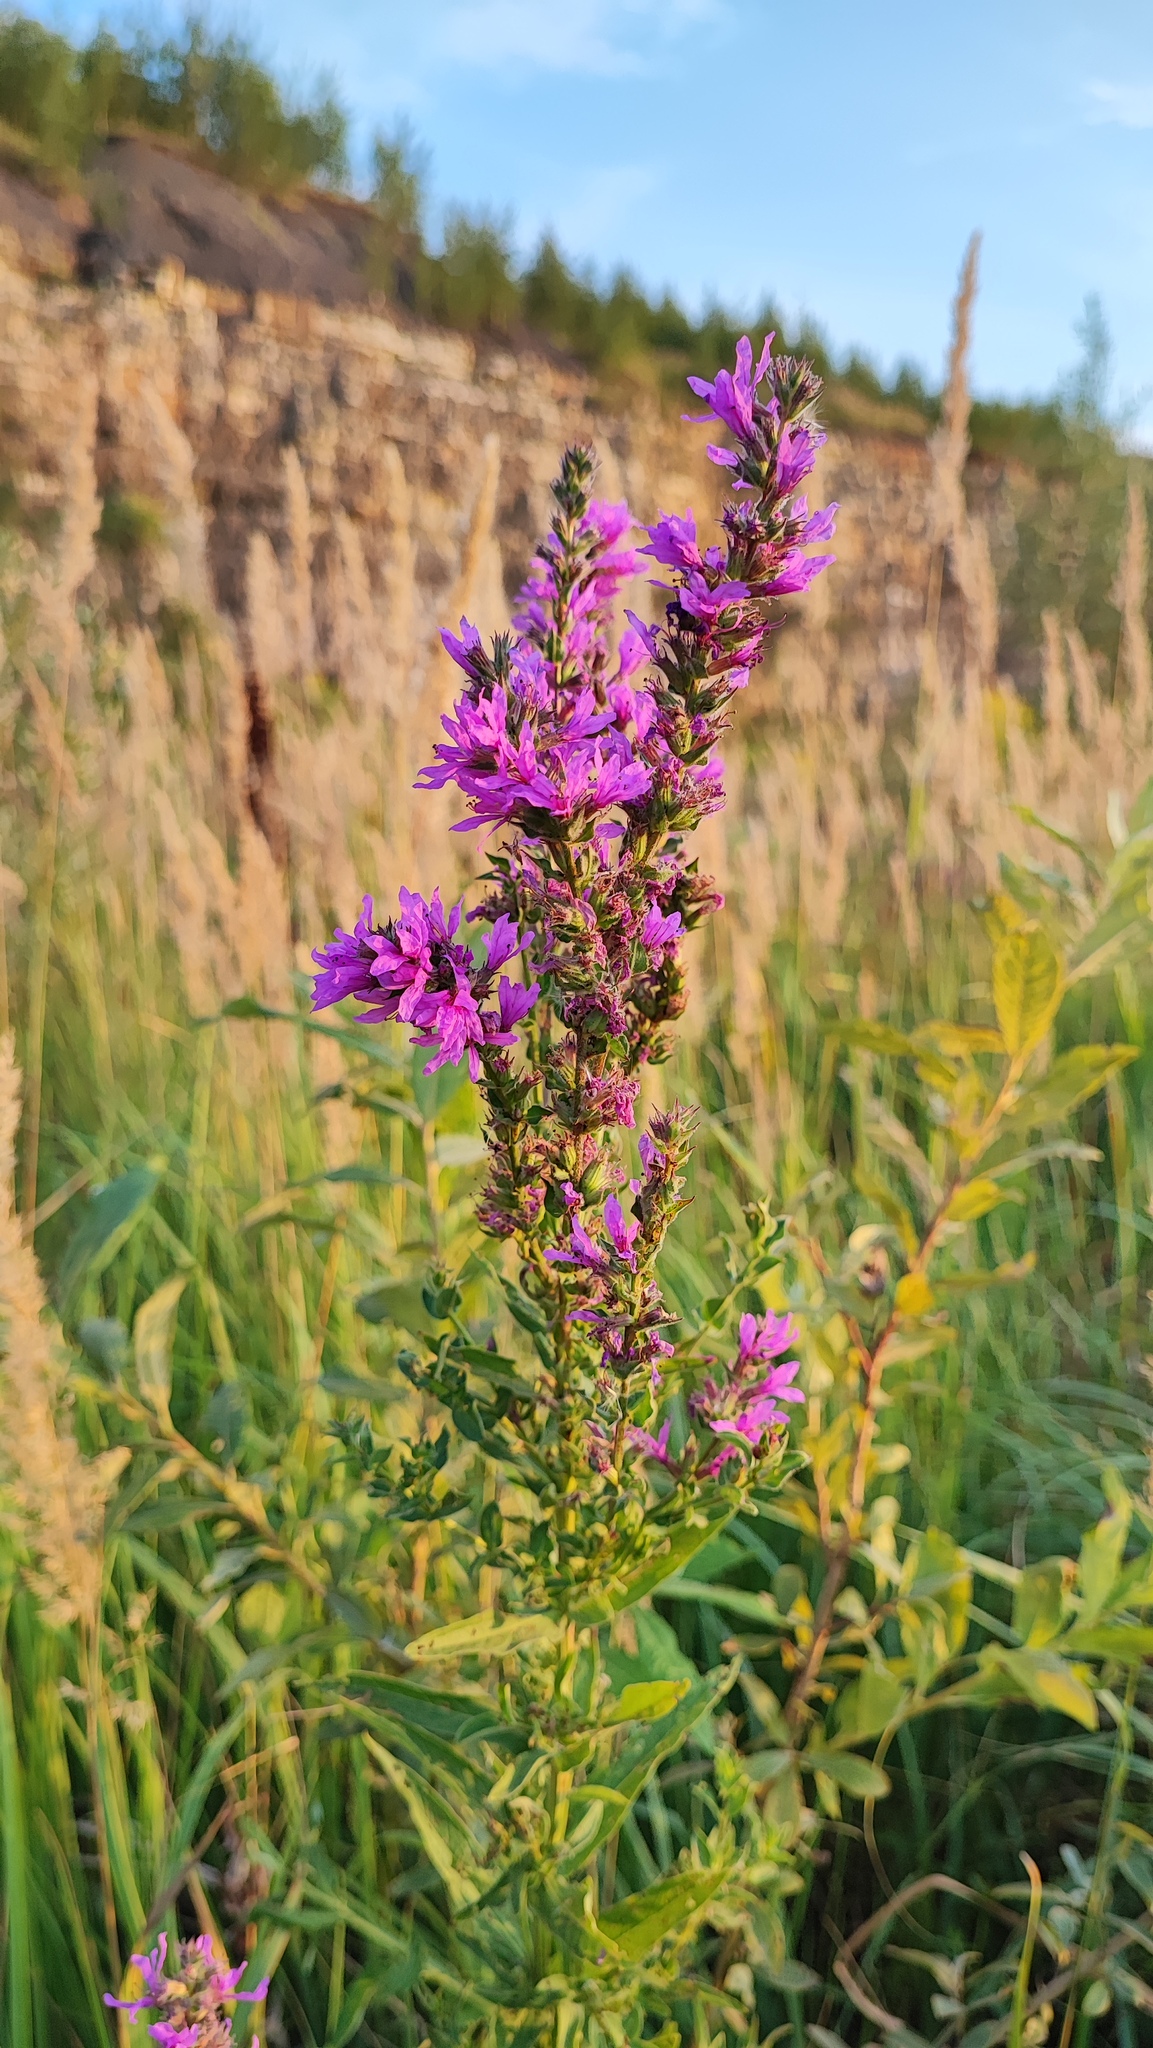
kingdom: Plantae
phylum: Tracheophyta
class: Magnoliopsida
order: Myrtales
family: Lythraceae
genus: Lythrum
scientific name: Lythrum salicaria
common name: Purple loosestrife
